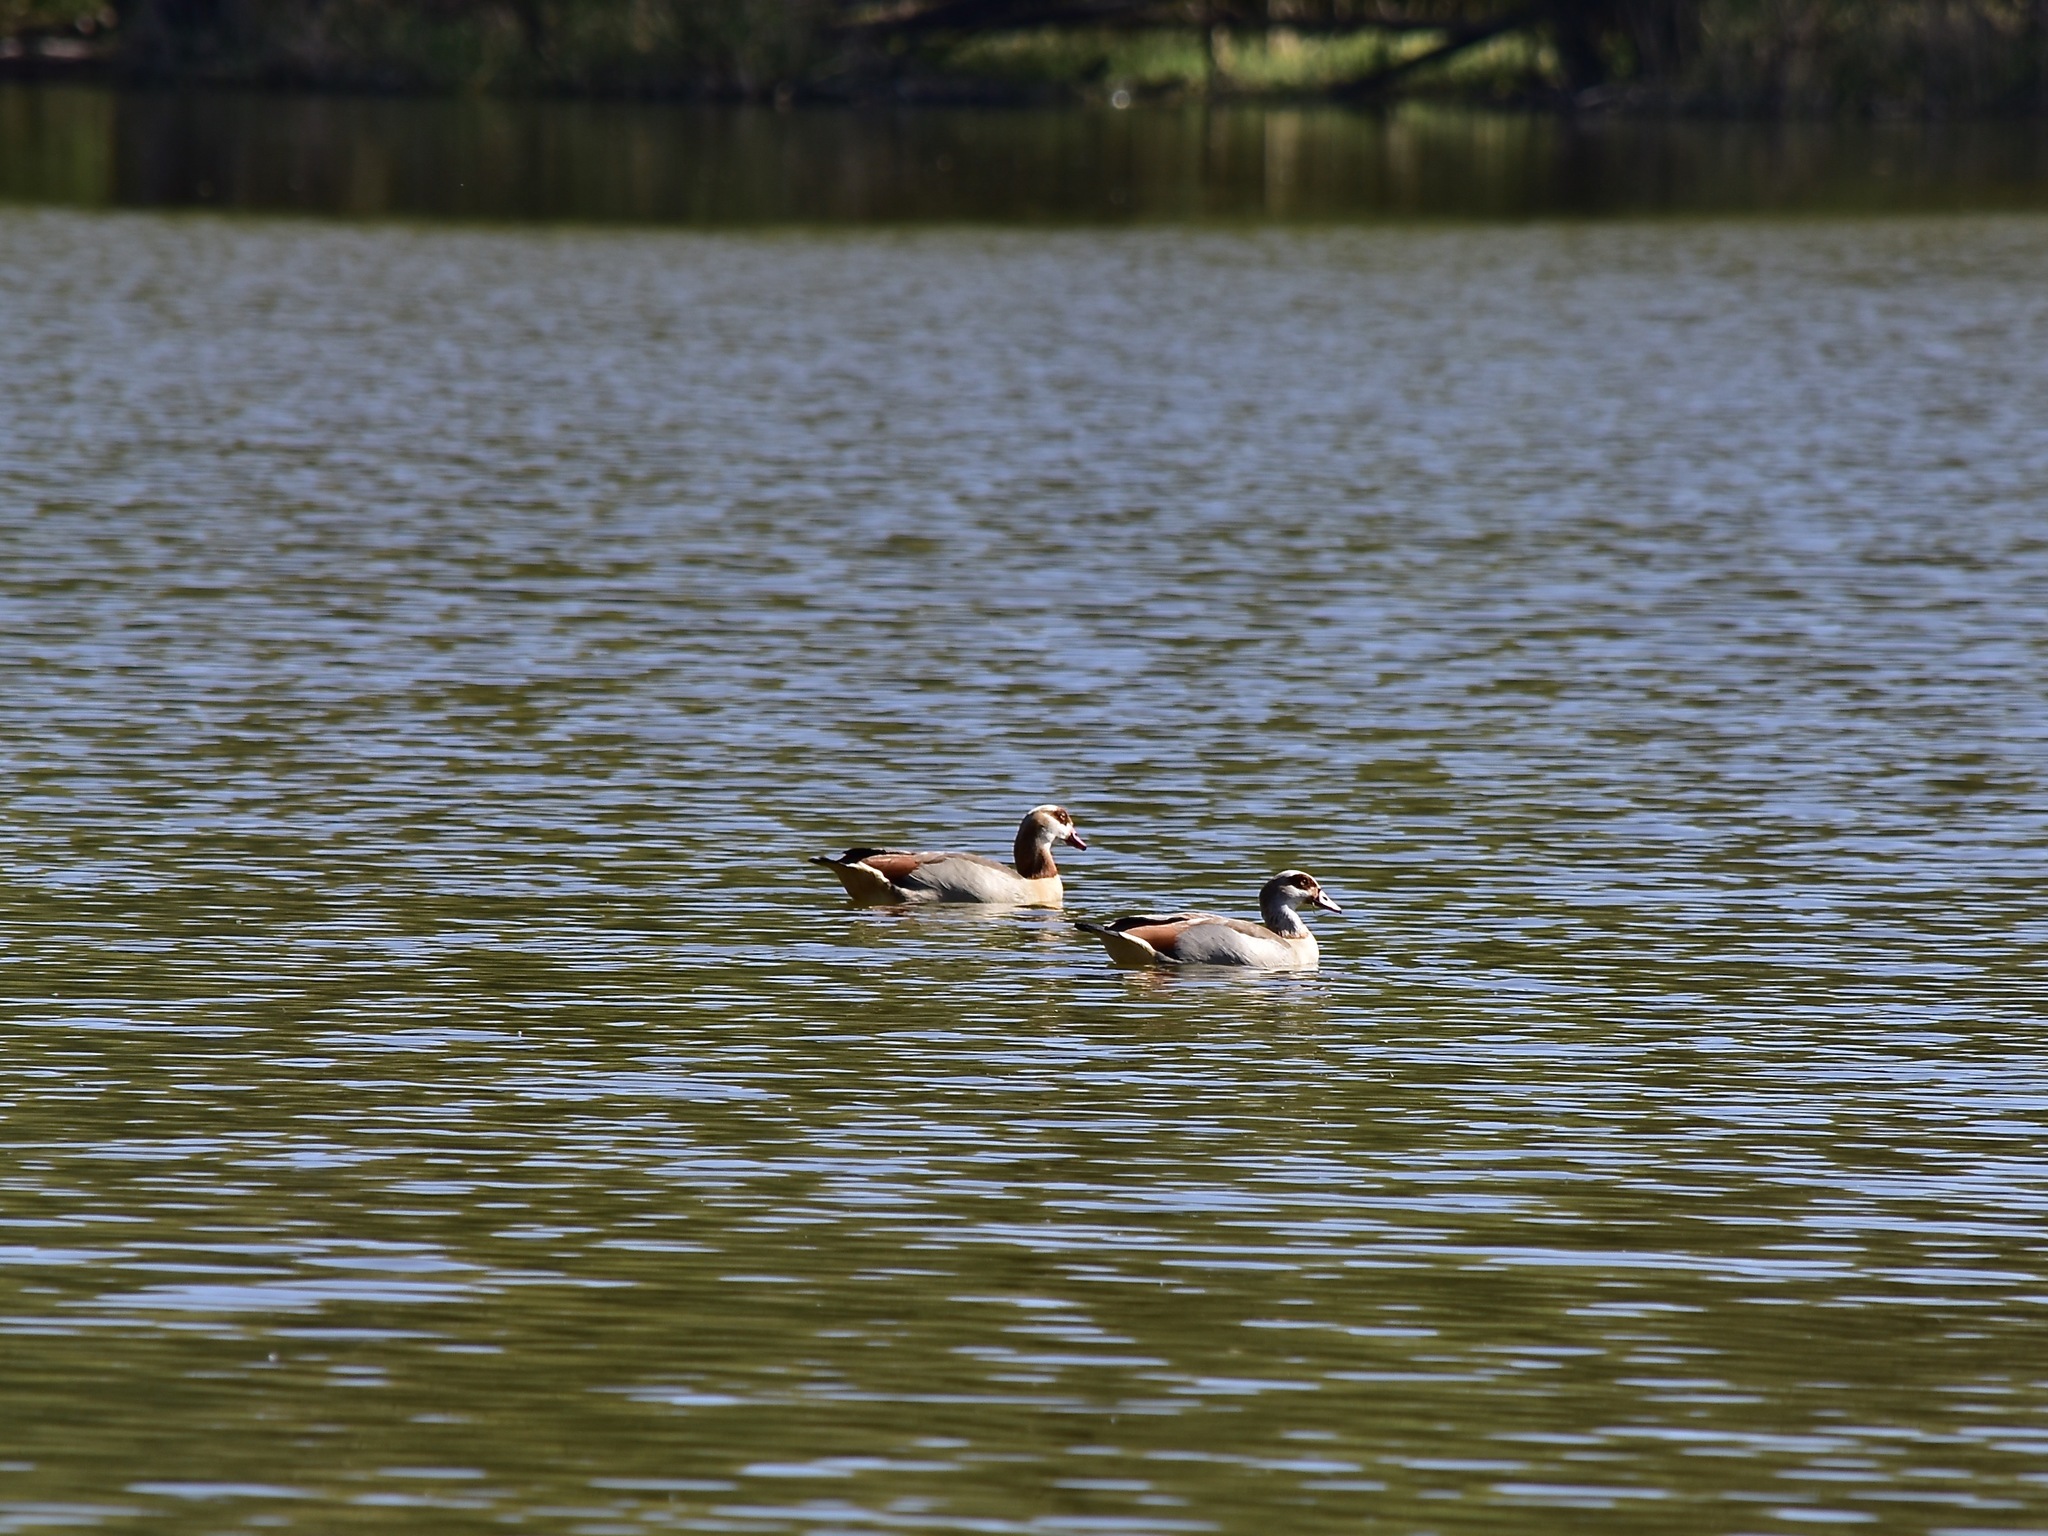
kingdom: Animalia
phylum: Chordata
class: Aves
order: Anseriformes
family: Anatidae
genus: Alopochen
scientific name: Alopochen aegyptiaca
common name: Egyptian goose
